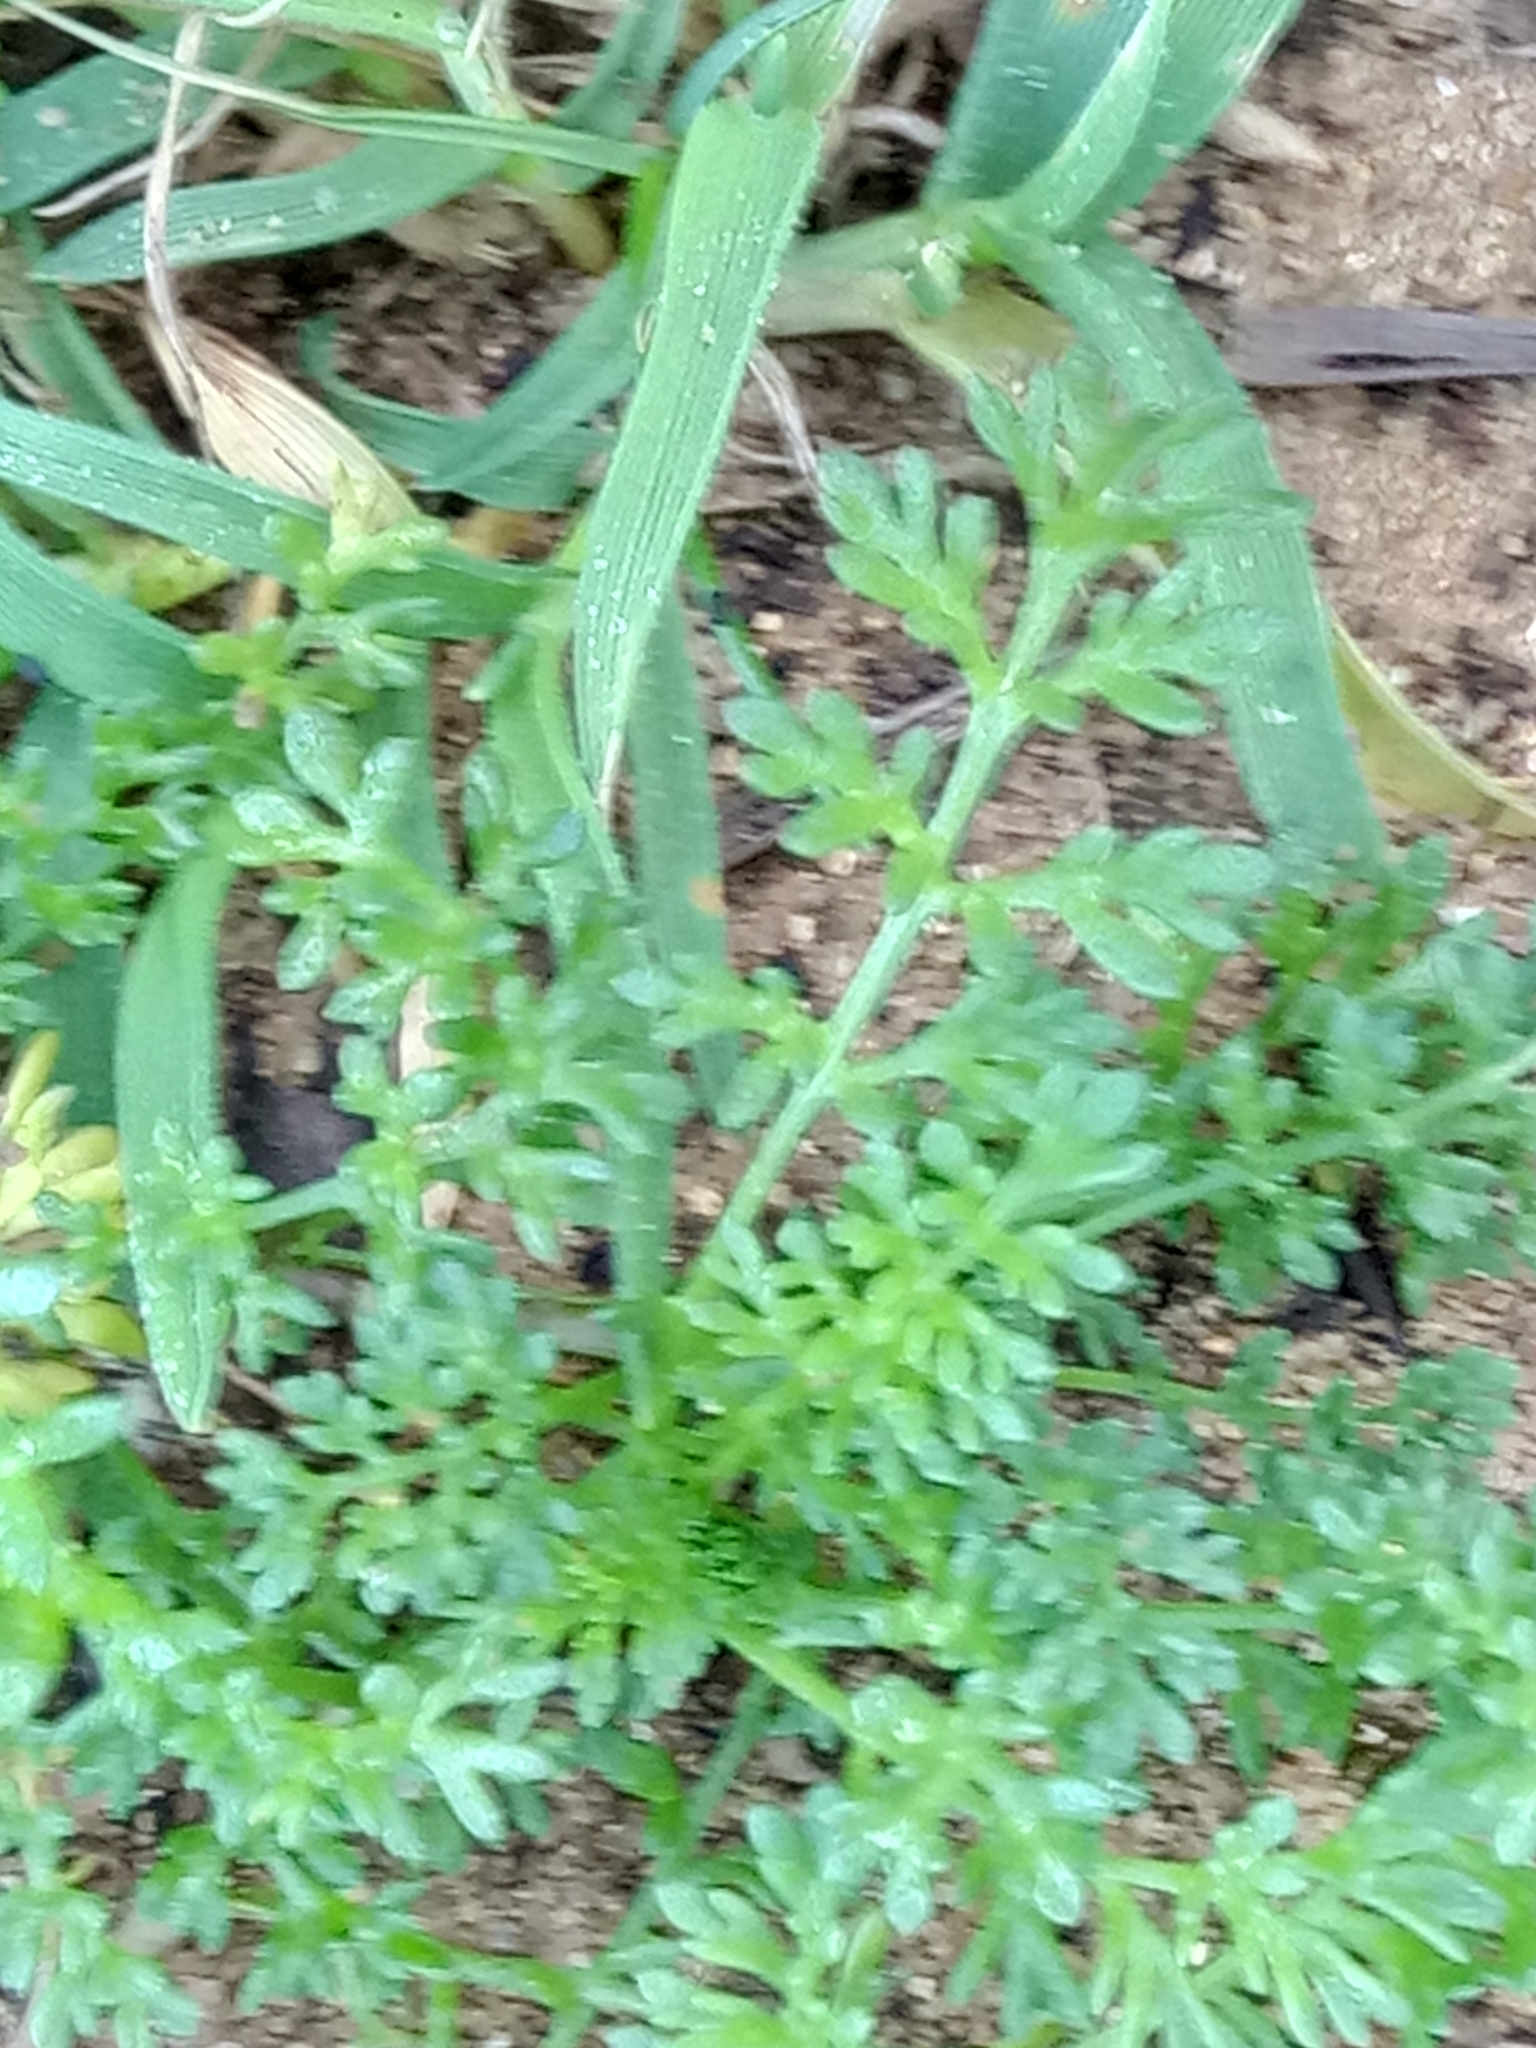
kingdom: Plantae
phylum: Tracheophyta
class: Magnoliopsida
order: Asterales
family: Asteraceae
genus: Anthemis
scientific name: Anthemis secundiramea
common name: Prostrate chamomile
